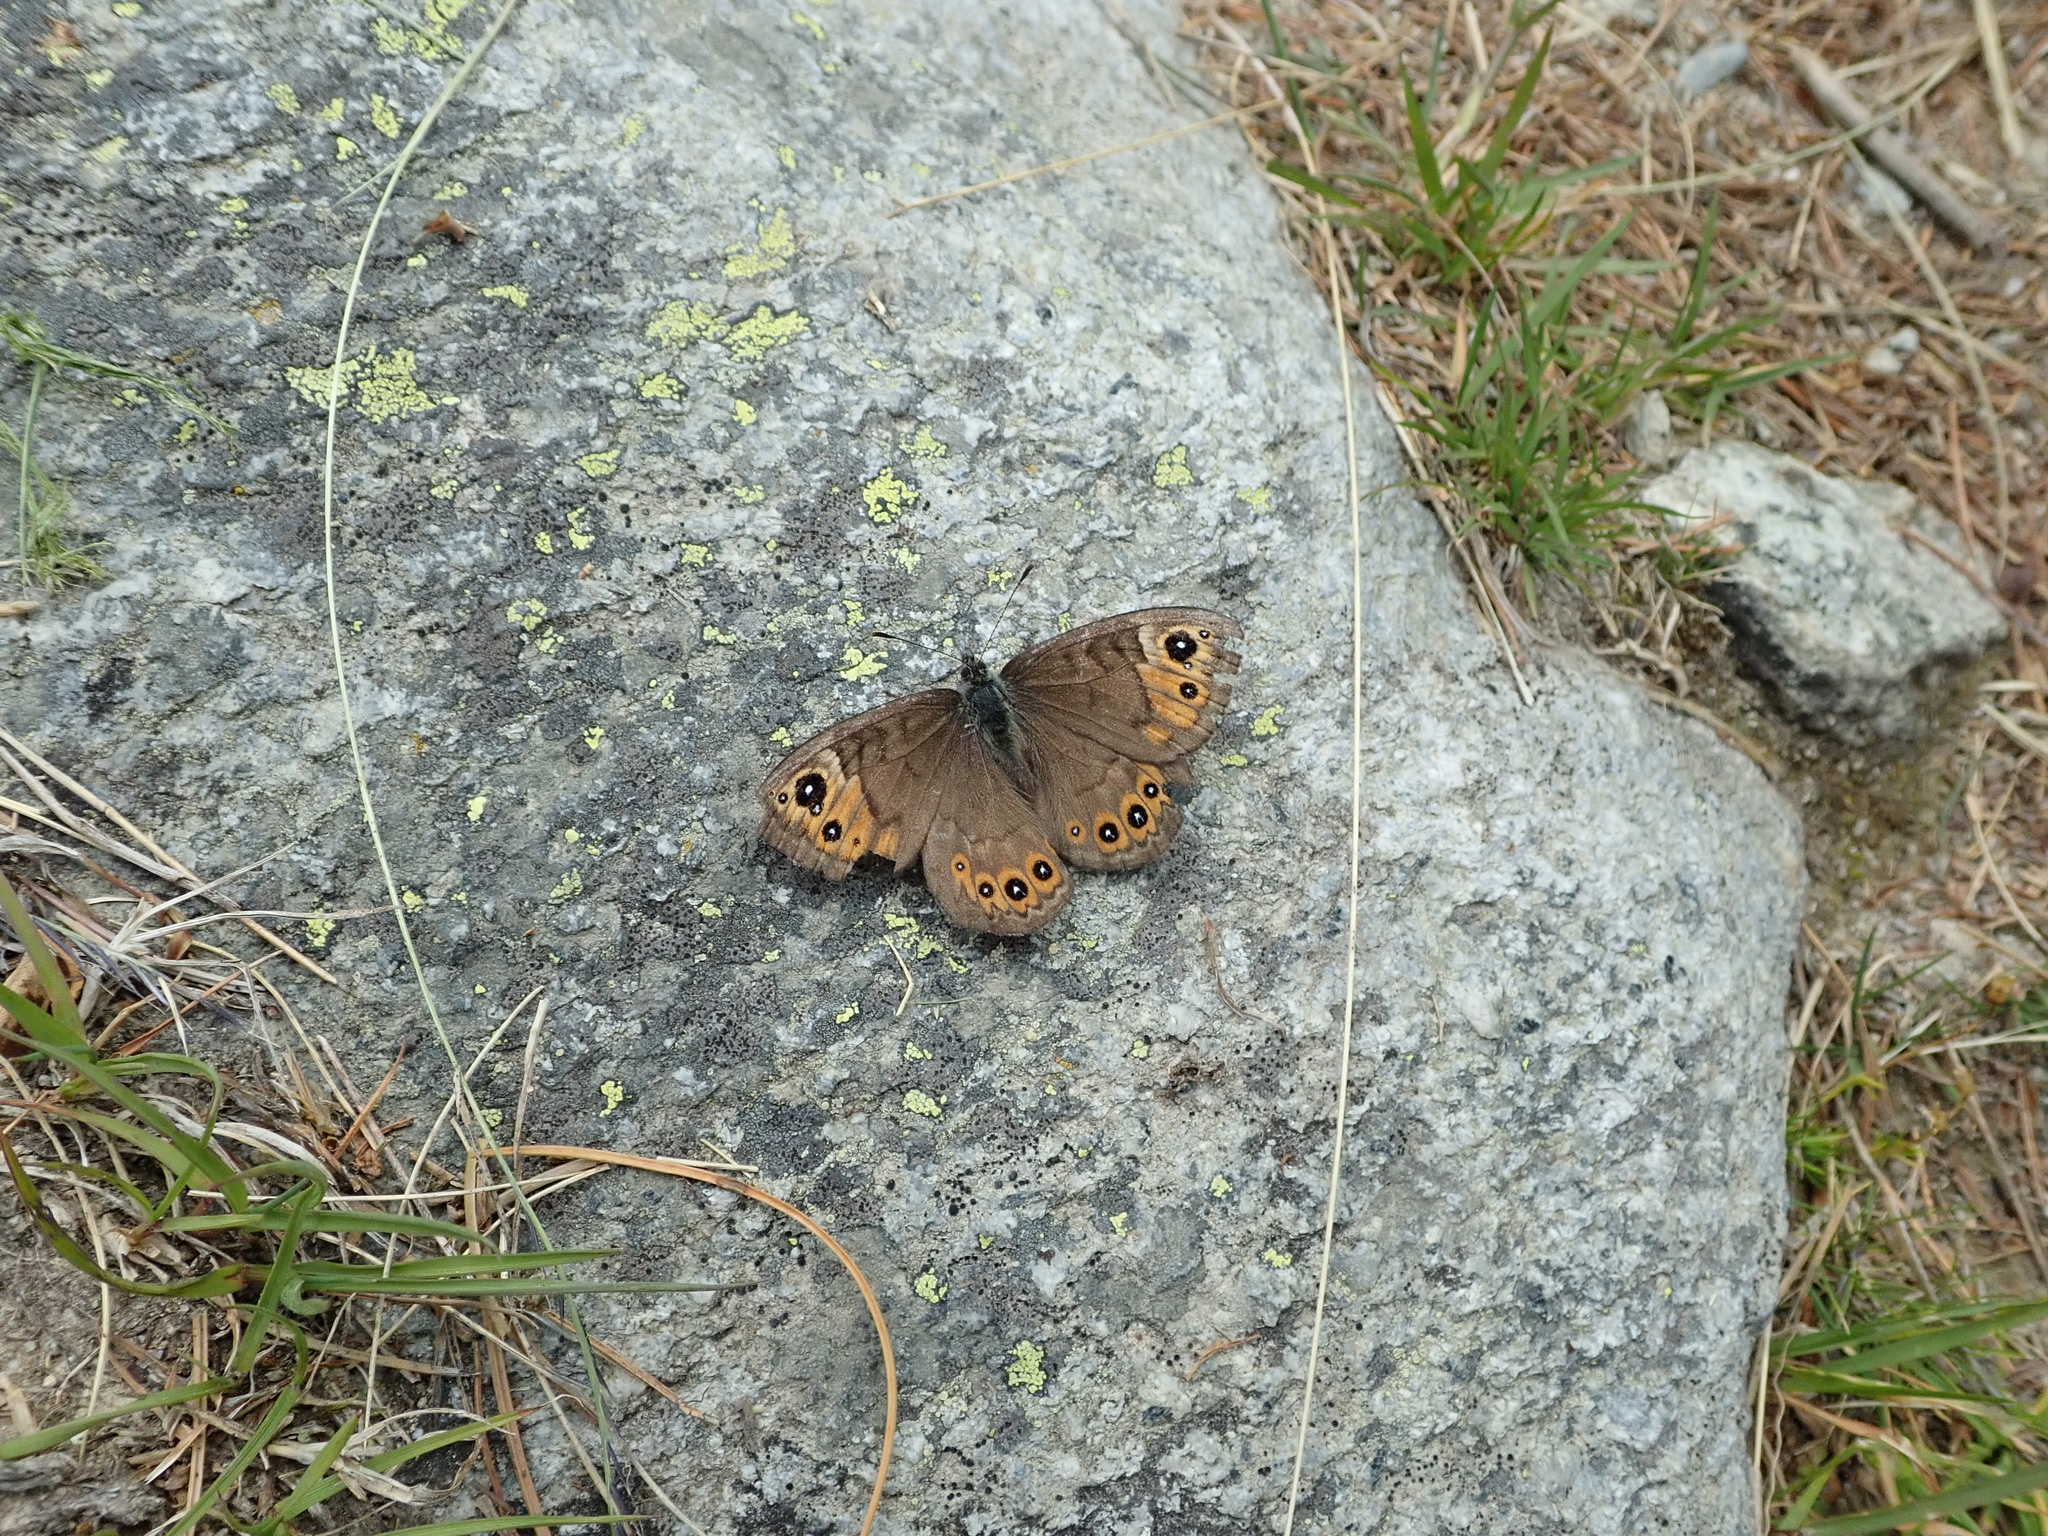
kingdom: Animalia
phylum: Arthropoda
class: Insecta
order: Lepidoptera
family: Nymphalidae
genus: Pararge
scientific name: Pararge petropolitana
